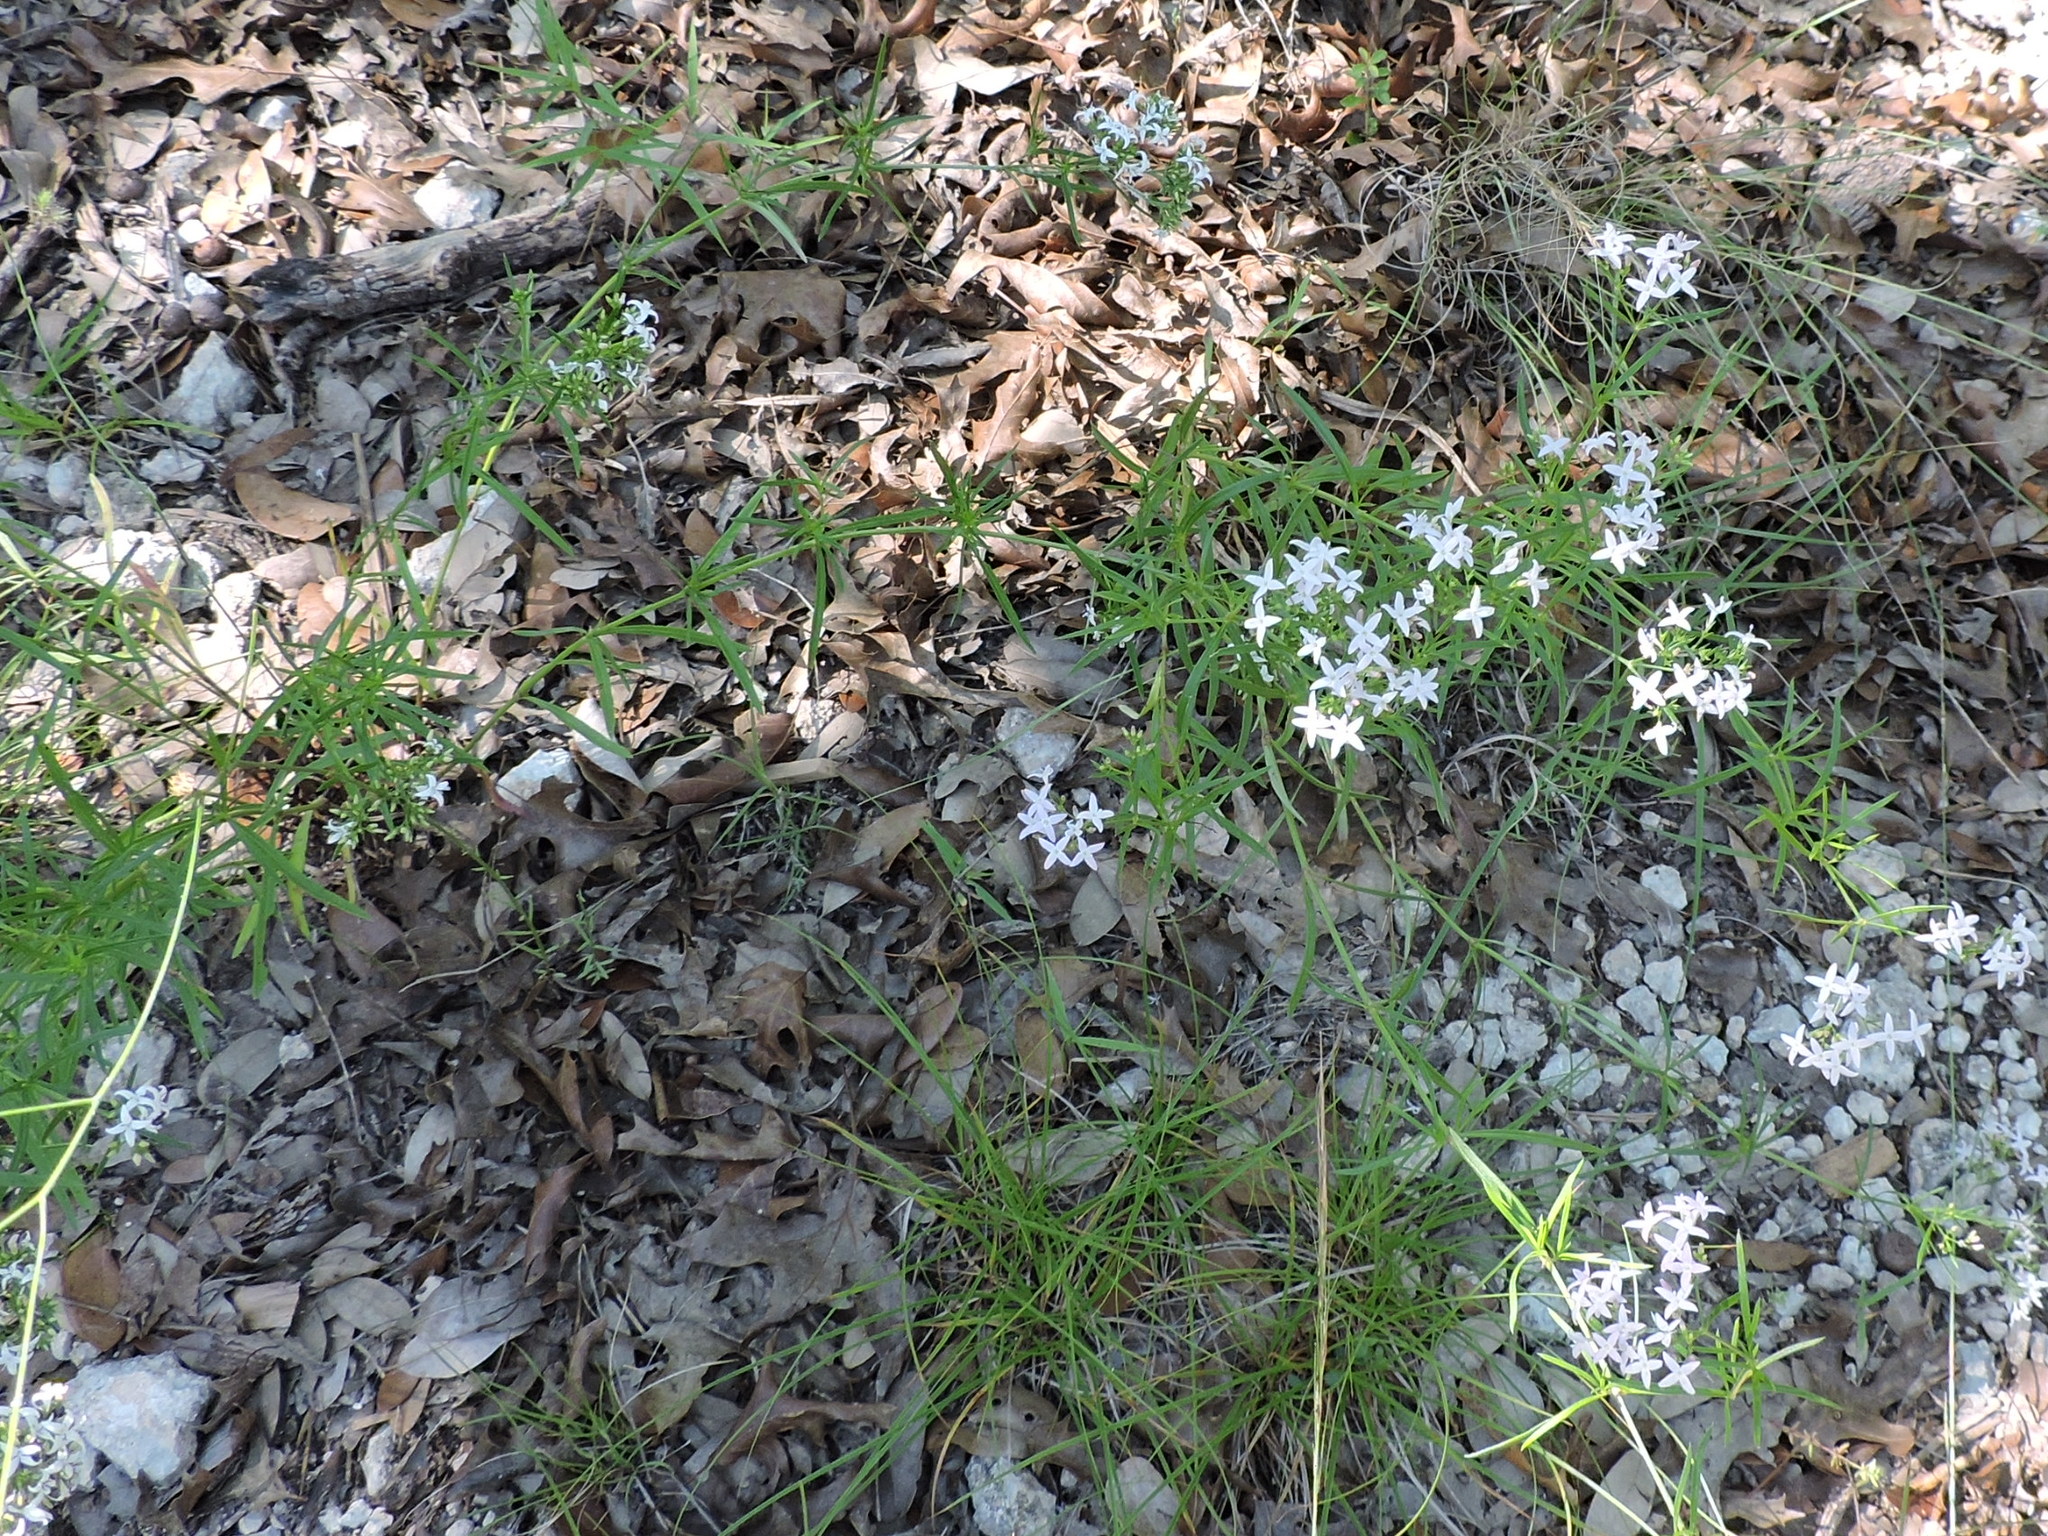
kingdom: Plantae
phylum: Tracheophyta
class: Magnoliopsida
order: Gentianales
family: Rubiaceae
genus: Stenaria
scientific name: Stenaria nigricans
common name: Diamondflowers
